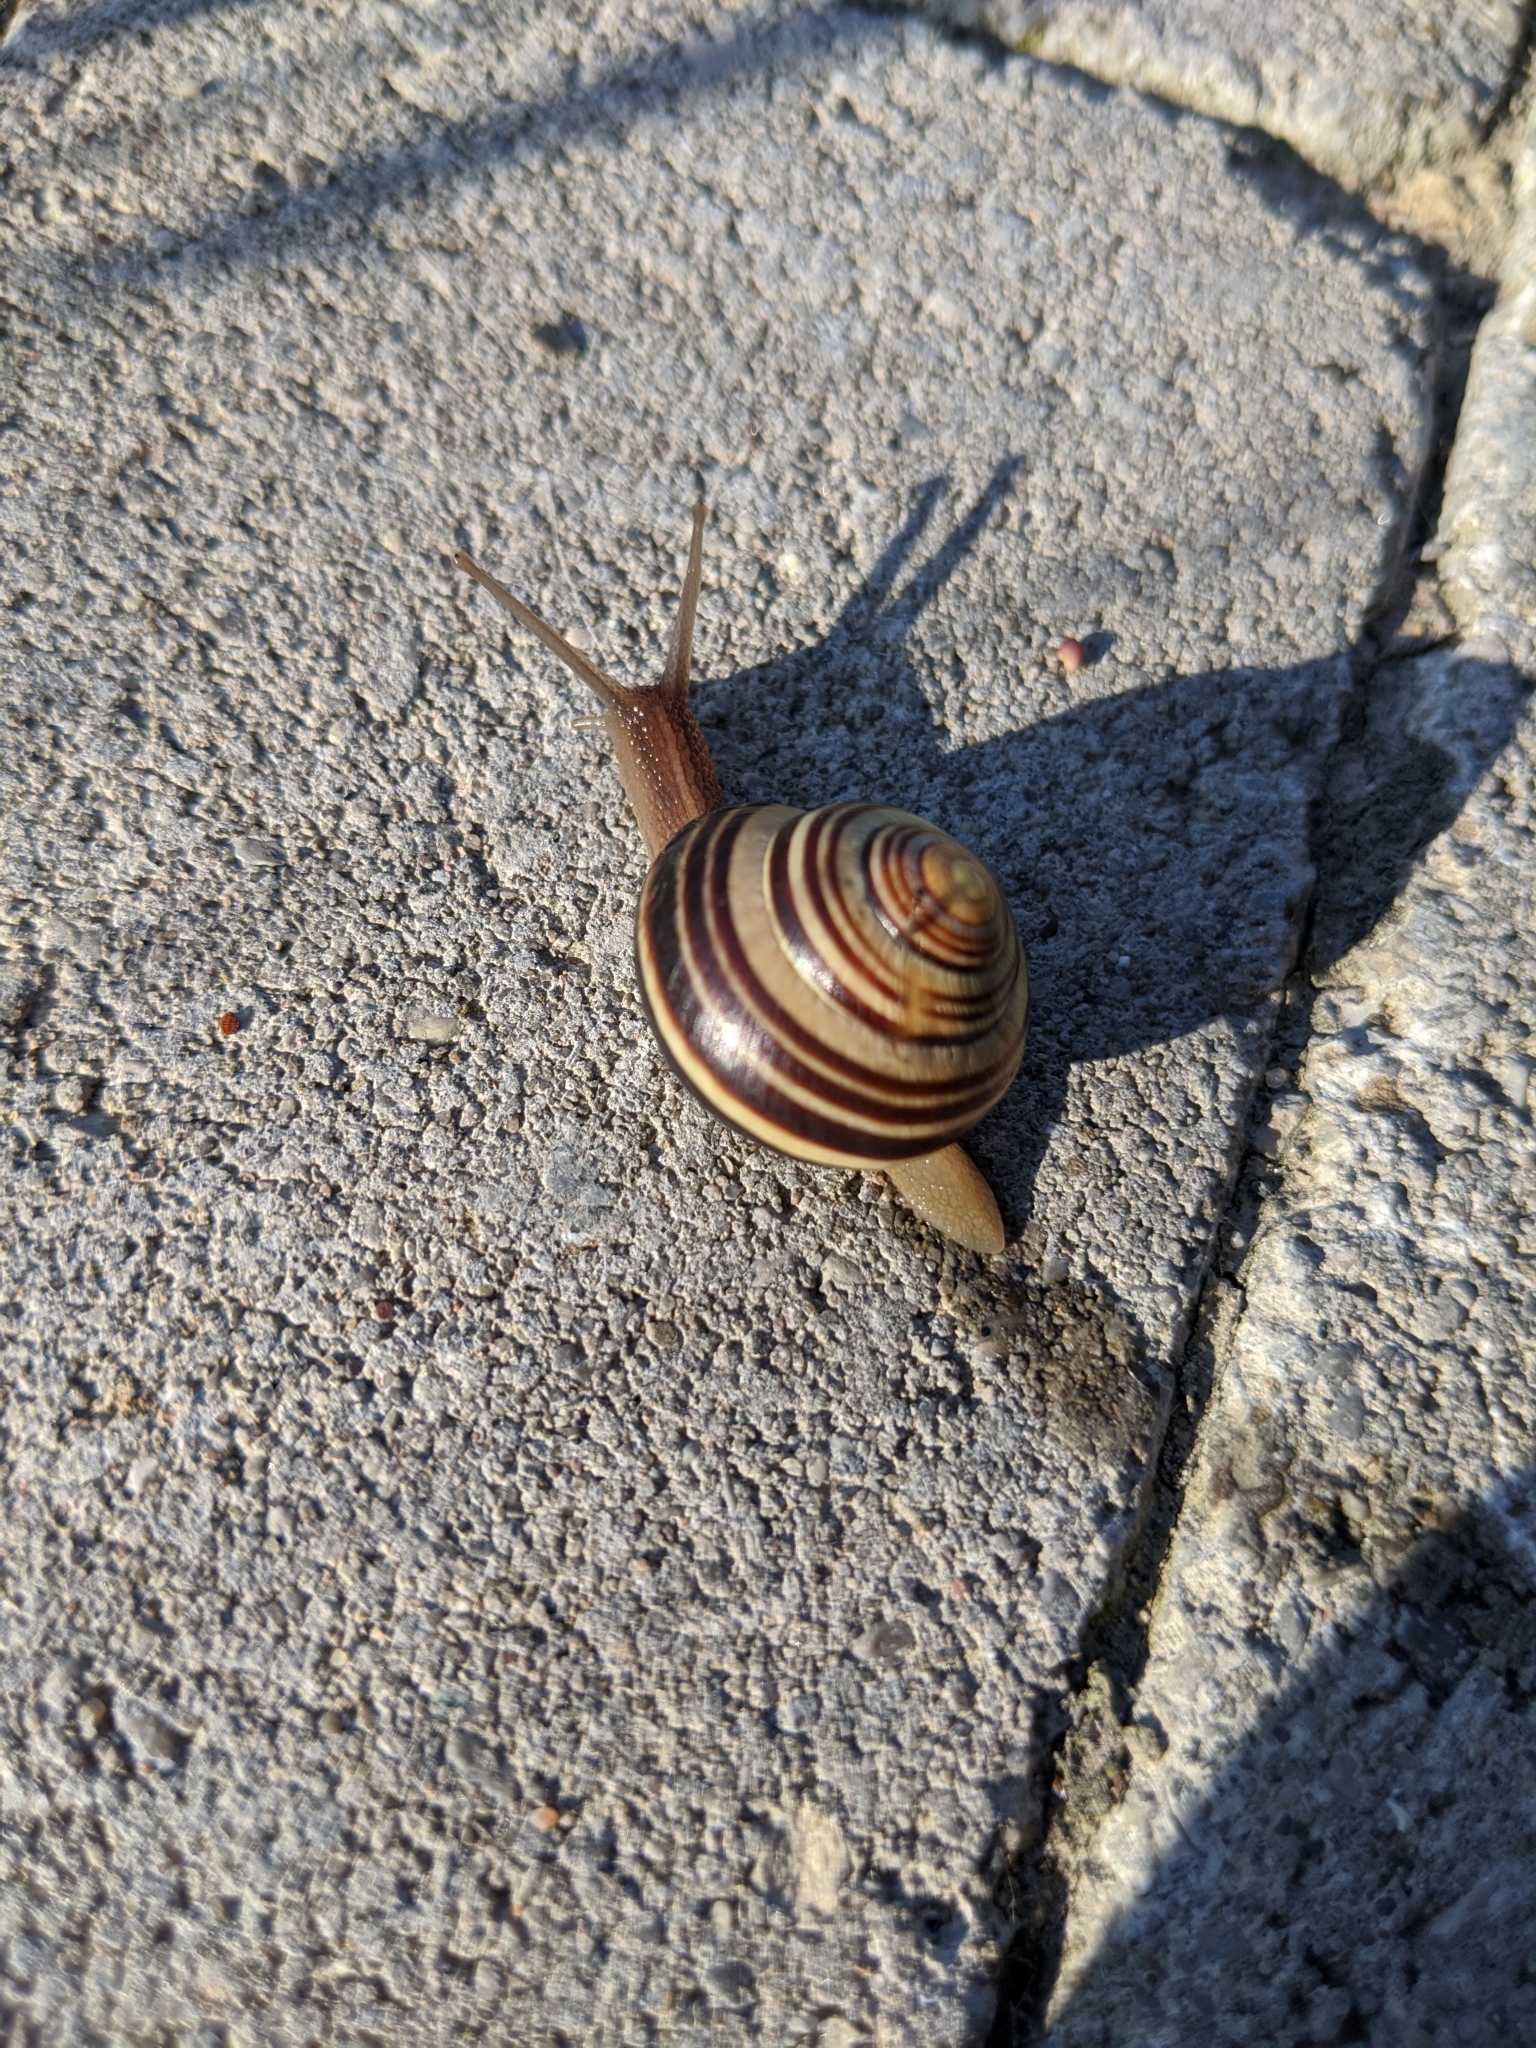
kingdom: Animalia
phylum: Mollusca
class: Gastropoda
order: Stylommatophora
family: Helicidae
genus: Cepaea
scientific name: Cepaea nemoralis
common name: Grovesnail
